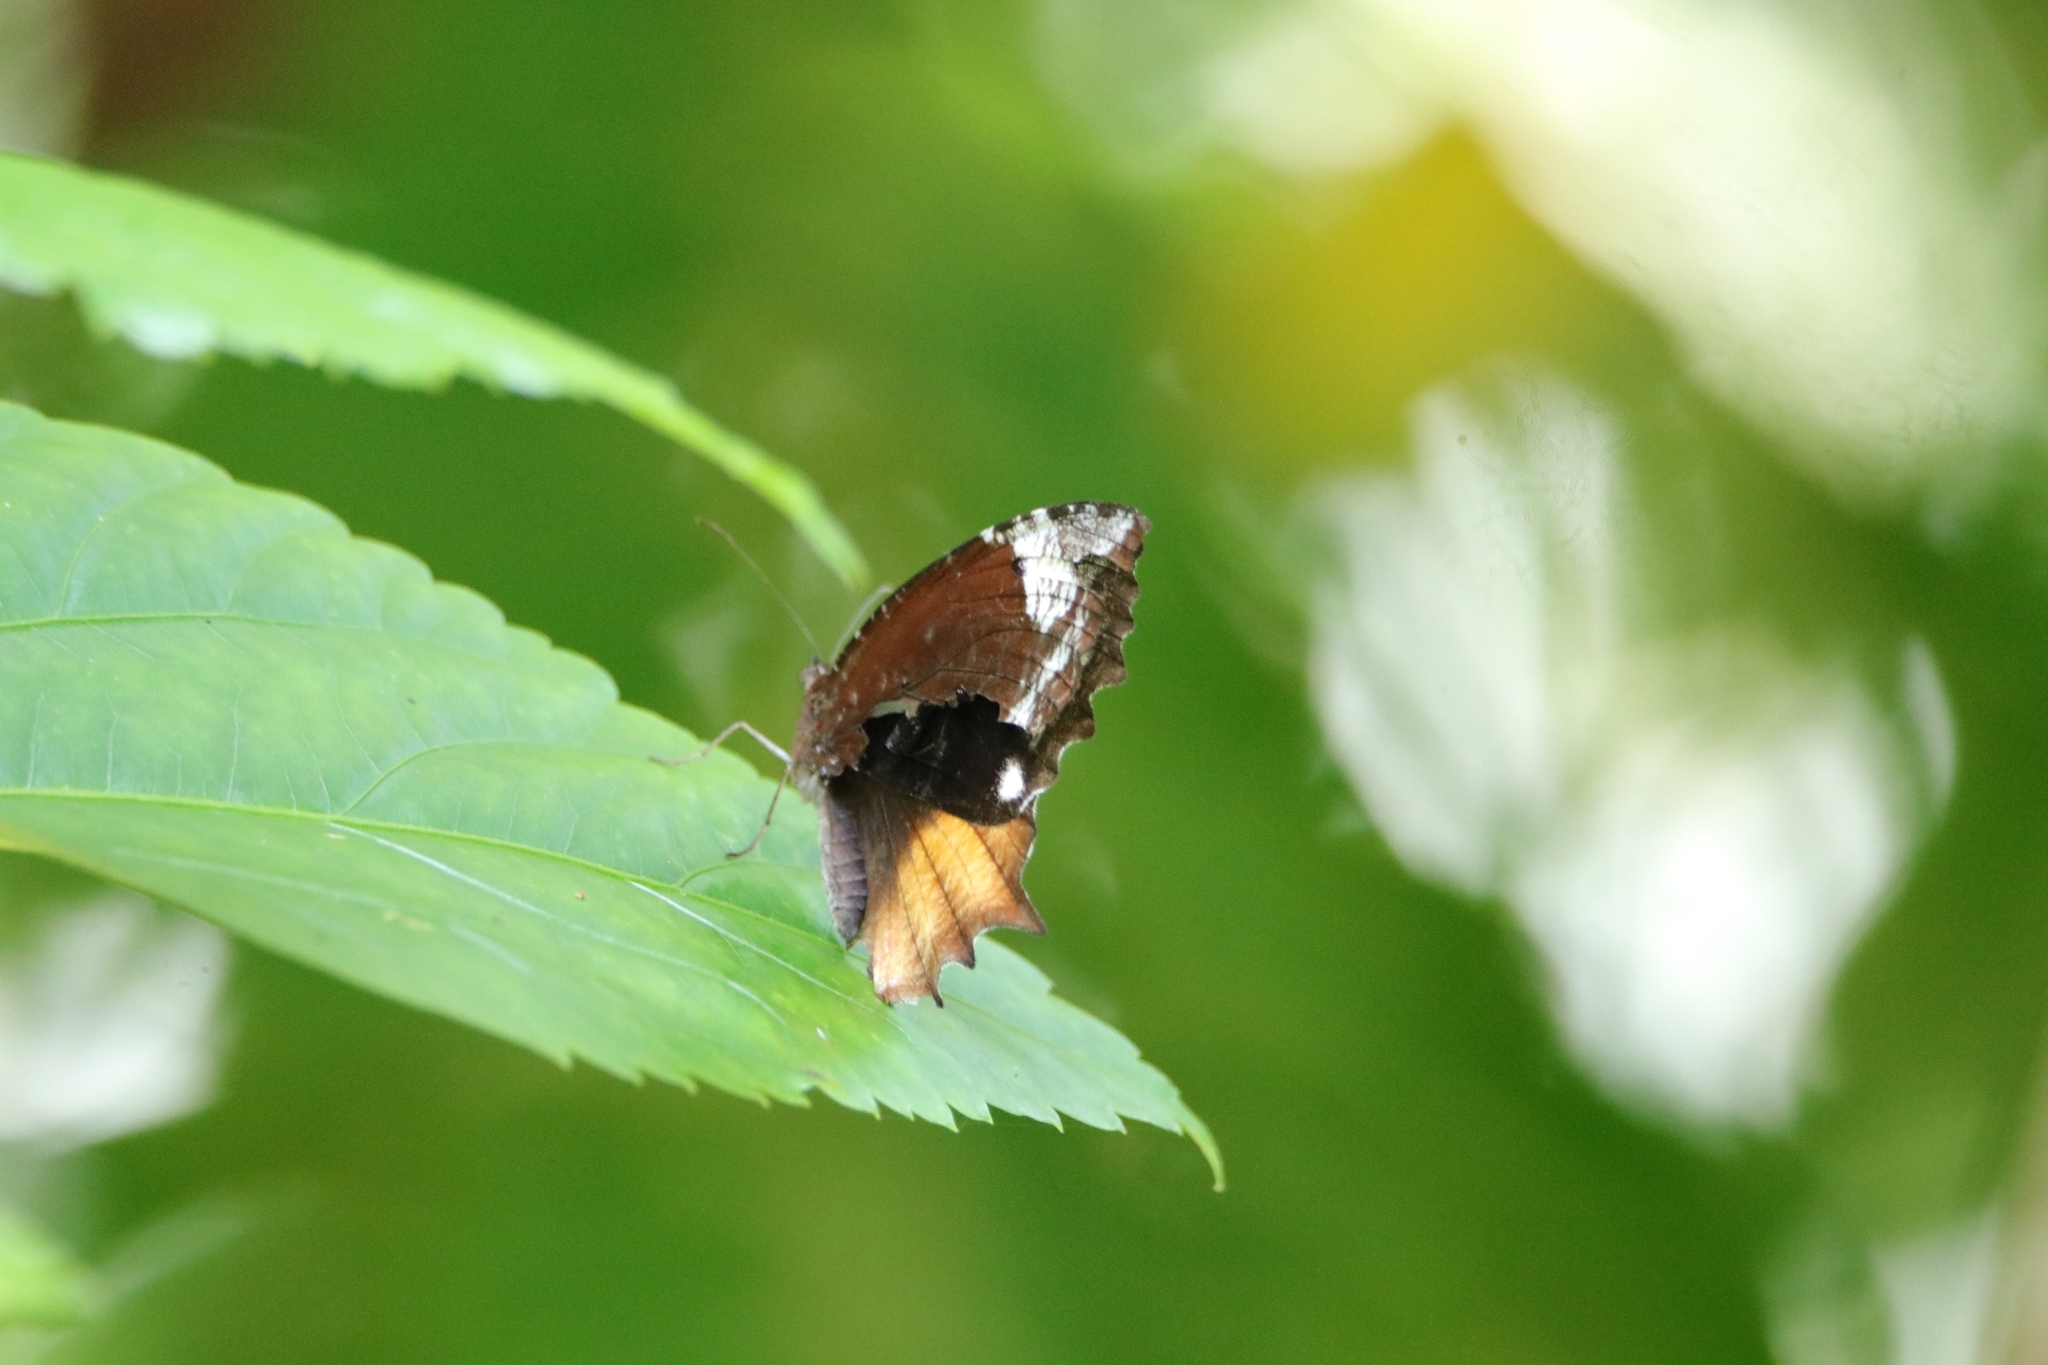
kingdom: Animalia
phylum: Arthropoda
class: Insecta
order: Lepidoptera
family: Nymphalidae
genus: Elymnias
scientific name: Elymnias caudata
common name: Tailed palmfly
